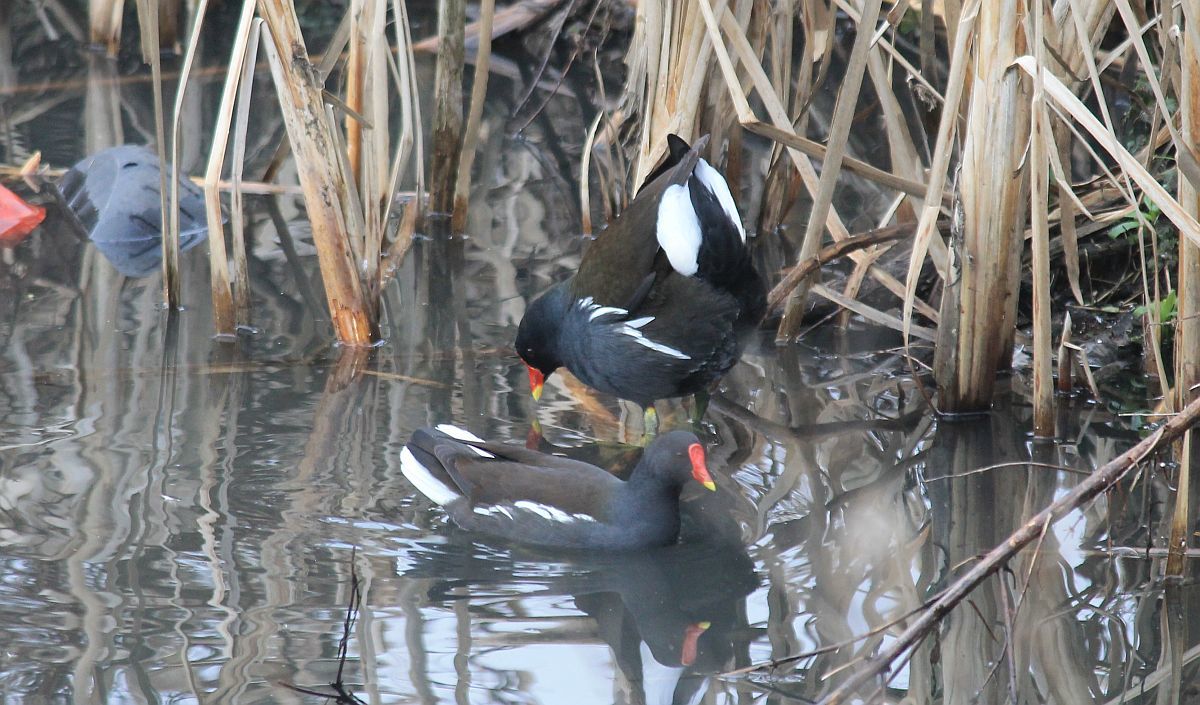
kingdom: Animalia
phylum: Chordata
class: Aves
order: Gruiformes
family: Rallidae
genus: Gallinula
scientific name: Gallinula chloropus
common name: Common moorhen
